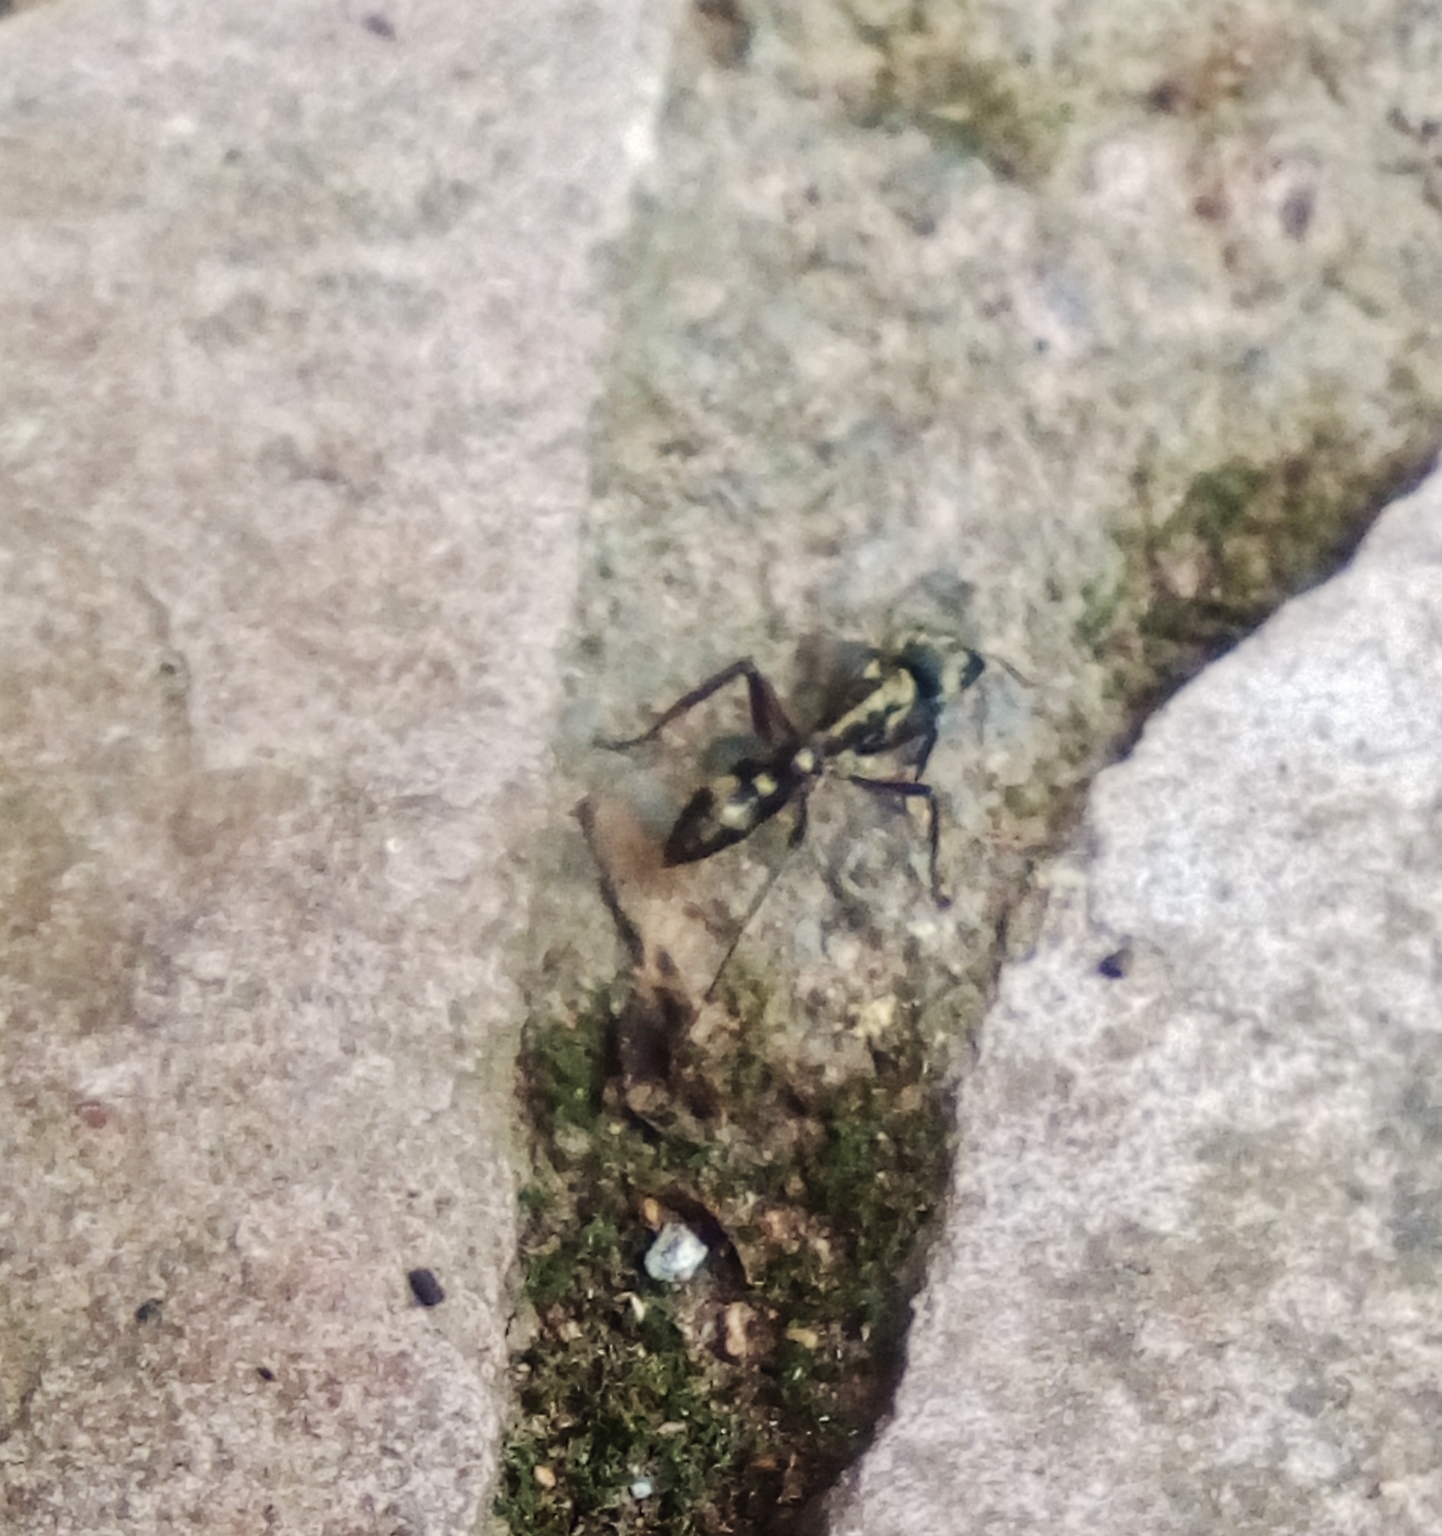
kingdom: Animalia
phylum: Arthropoda
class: Insecta
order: Hymenoptera
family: Formicidae
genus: Pachycondyla
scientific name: Pachycondyla villosa
